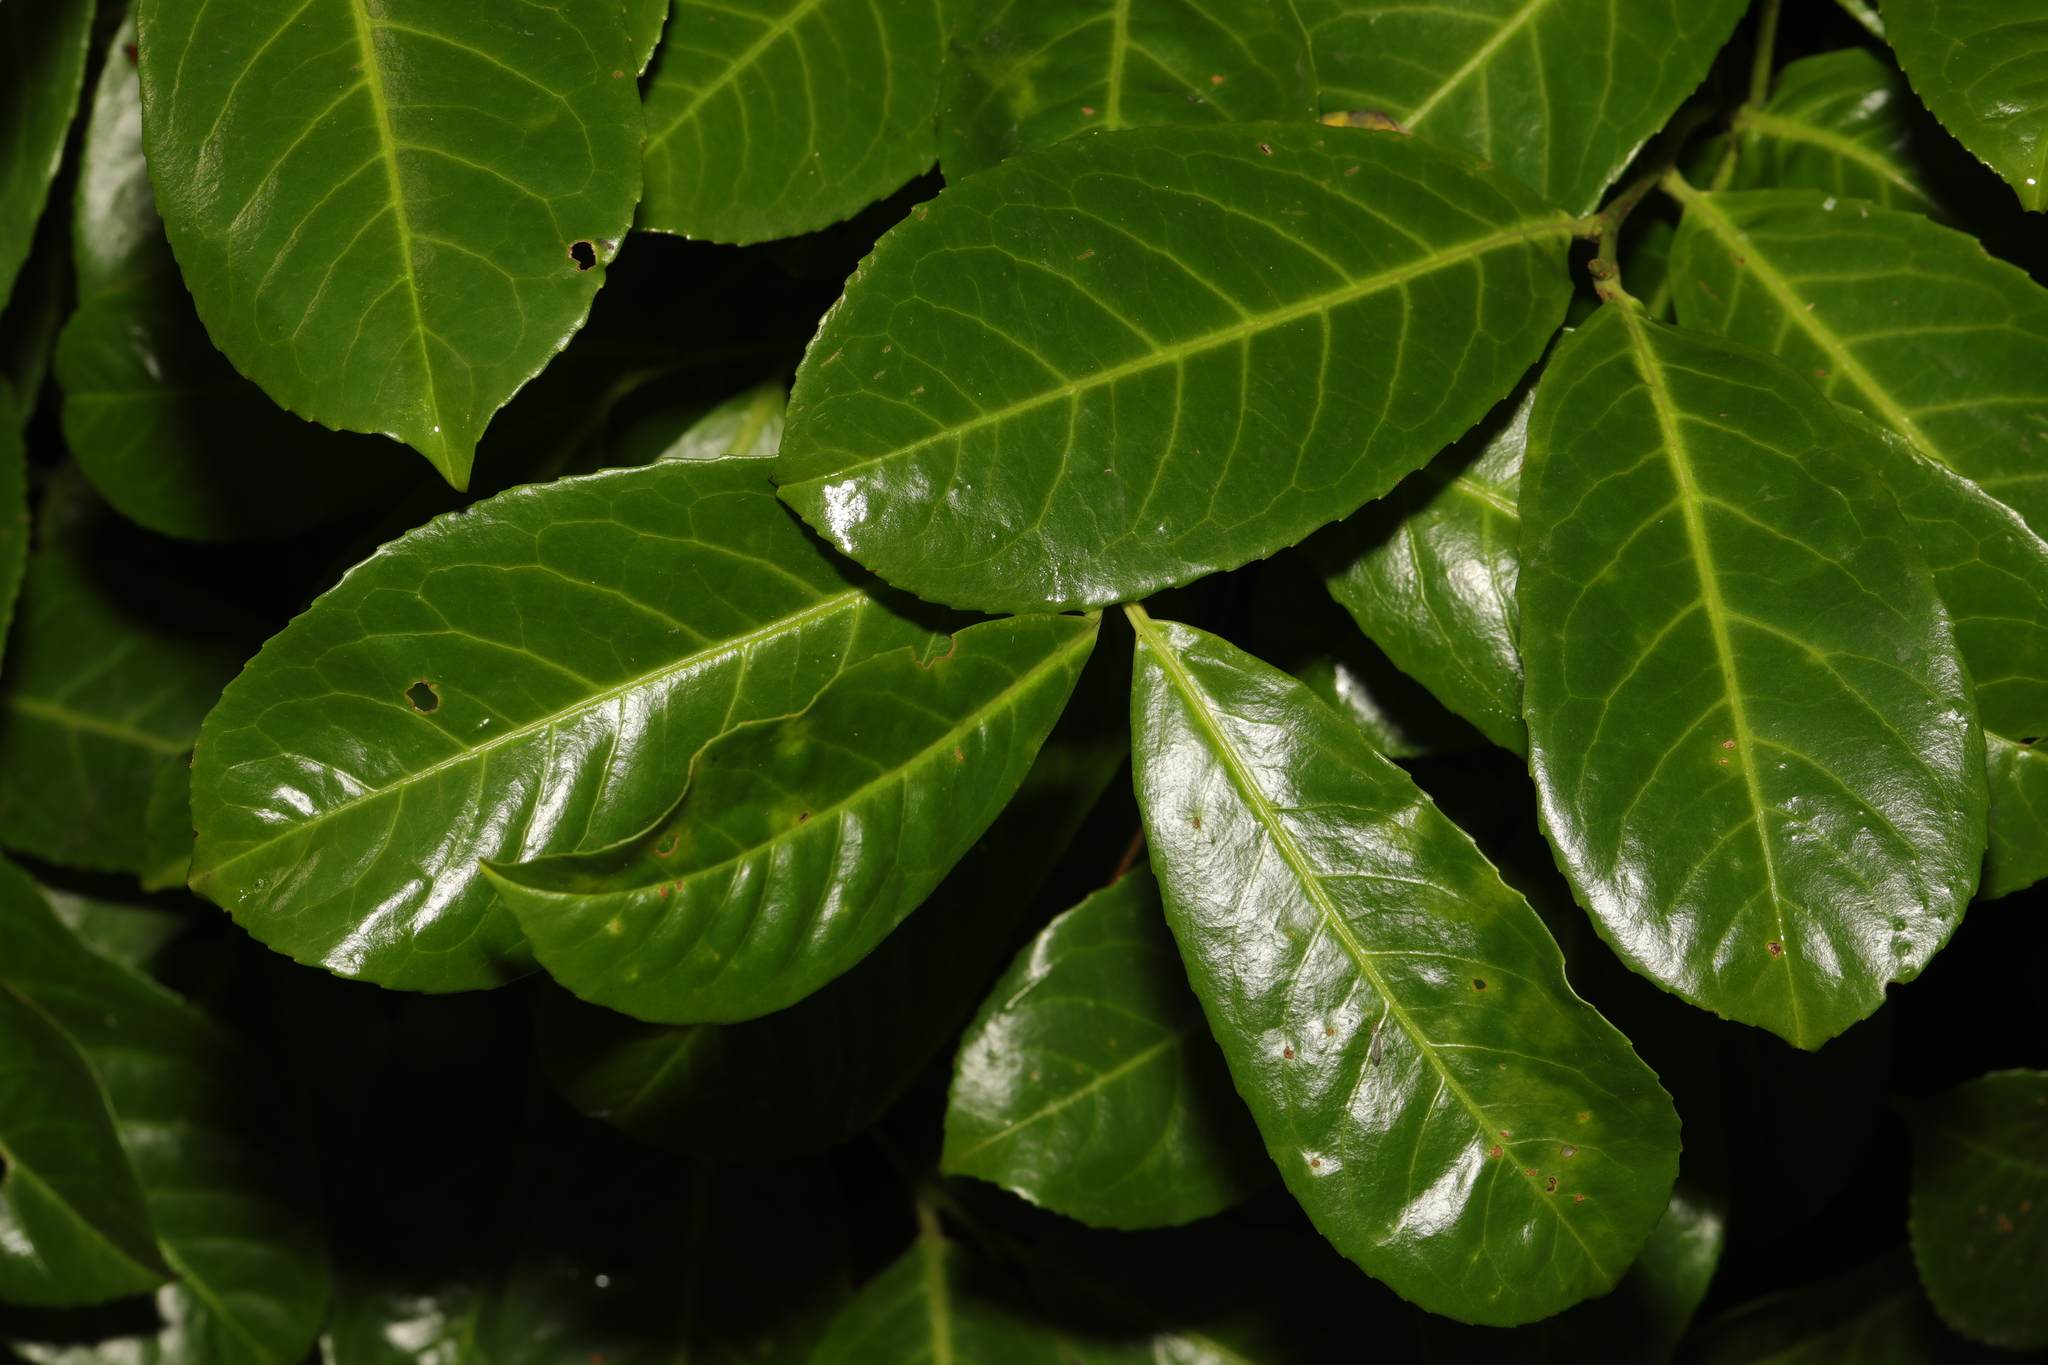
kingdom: Plantae
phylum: Tracheophyta
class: Magnoliopsida
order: Rosales
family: Rosaceae
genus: Prunus
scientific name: Prunus laurocerasus
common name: Cherry laurel
